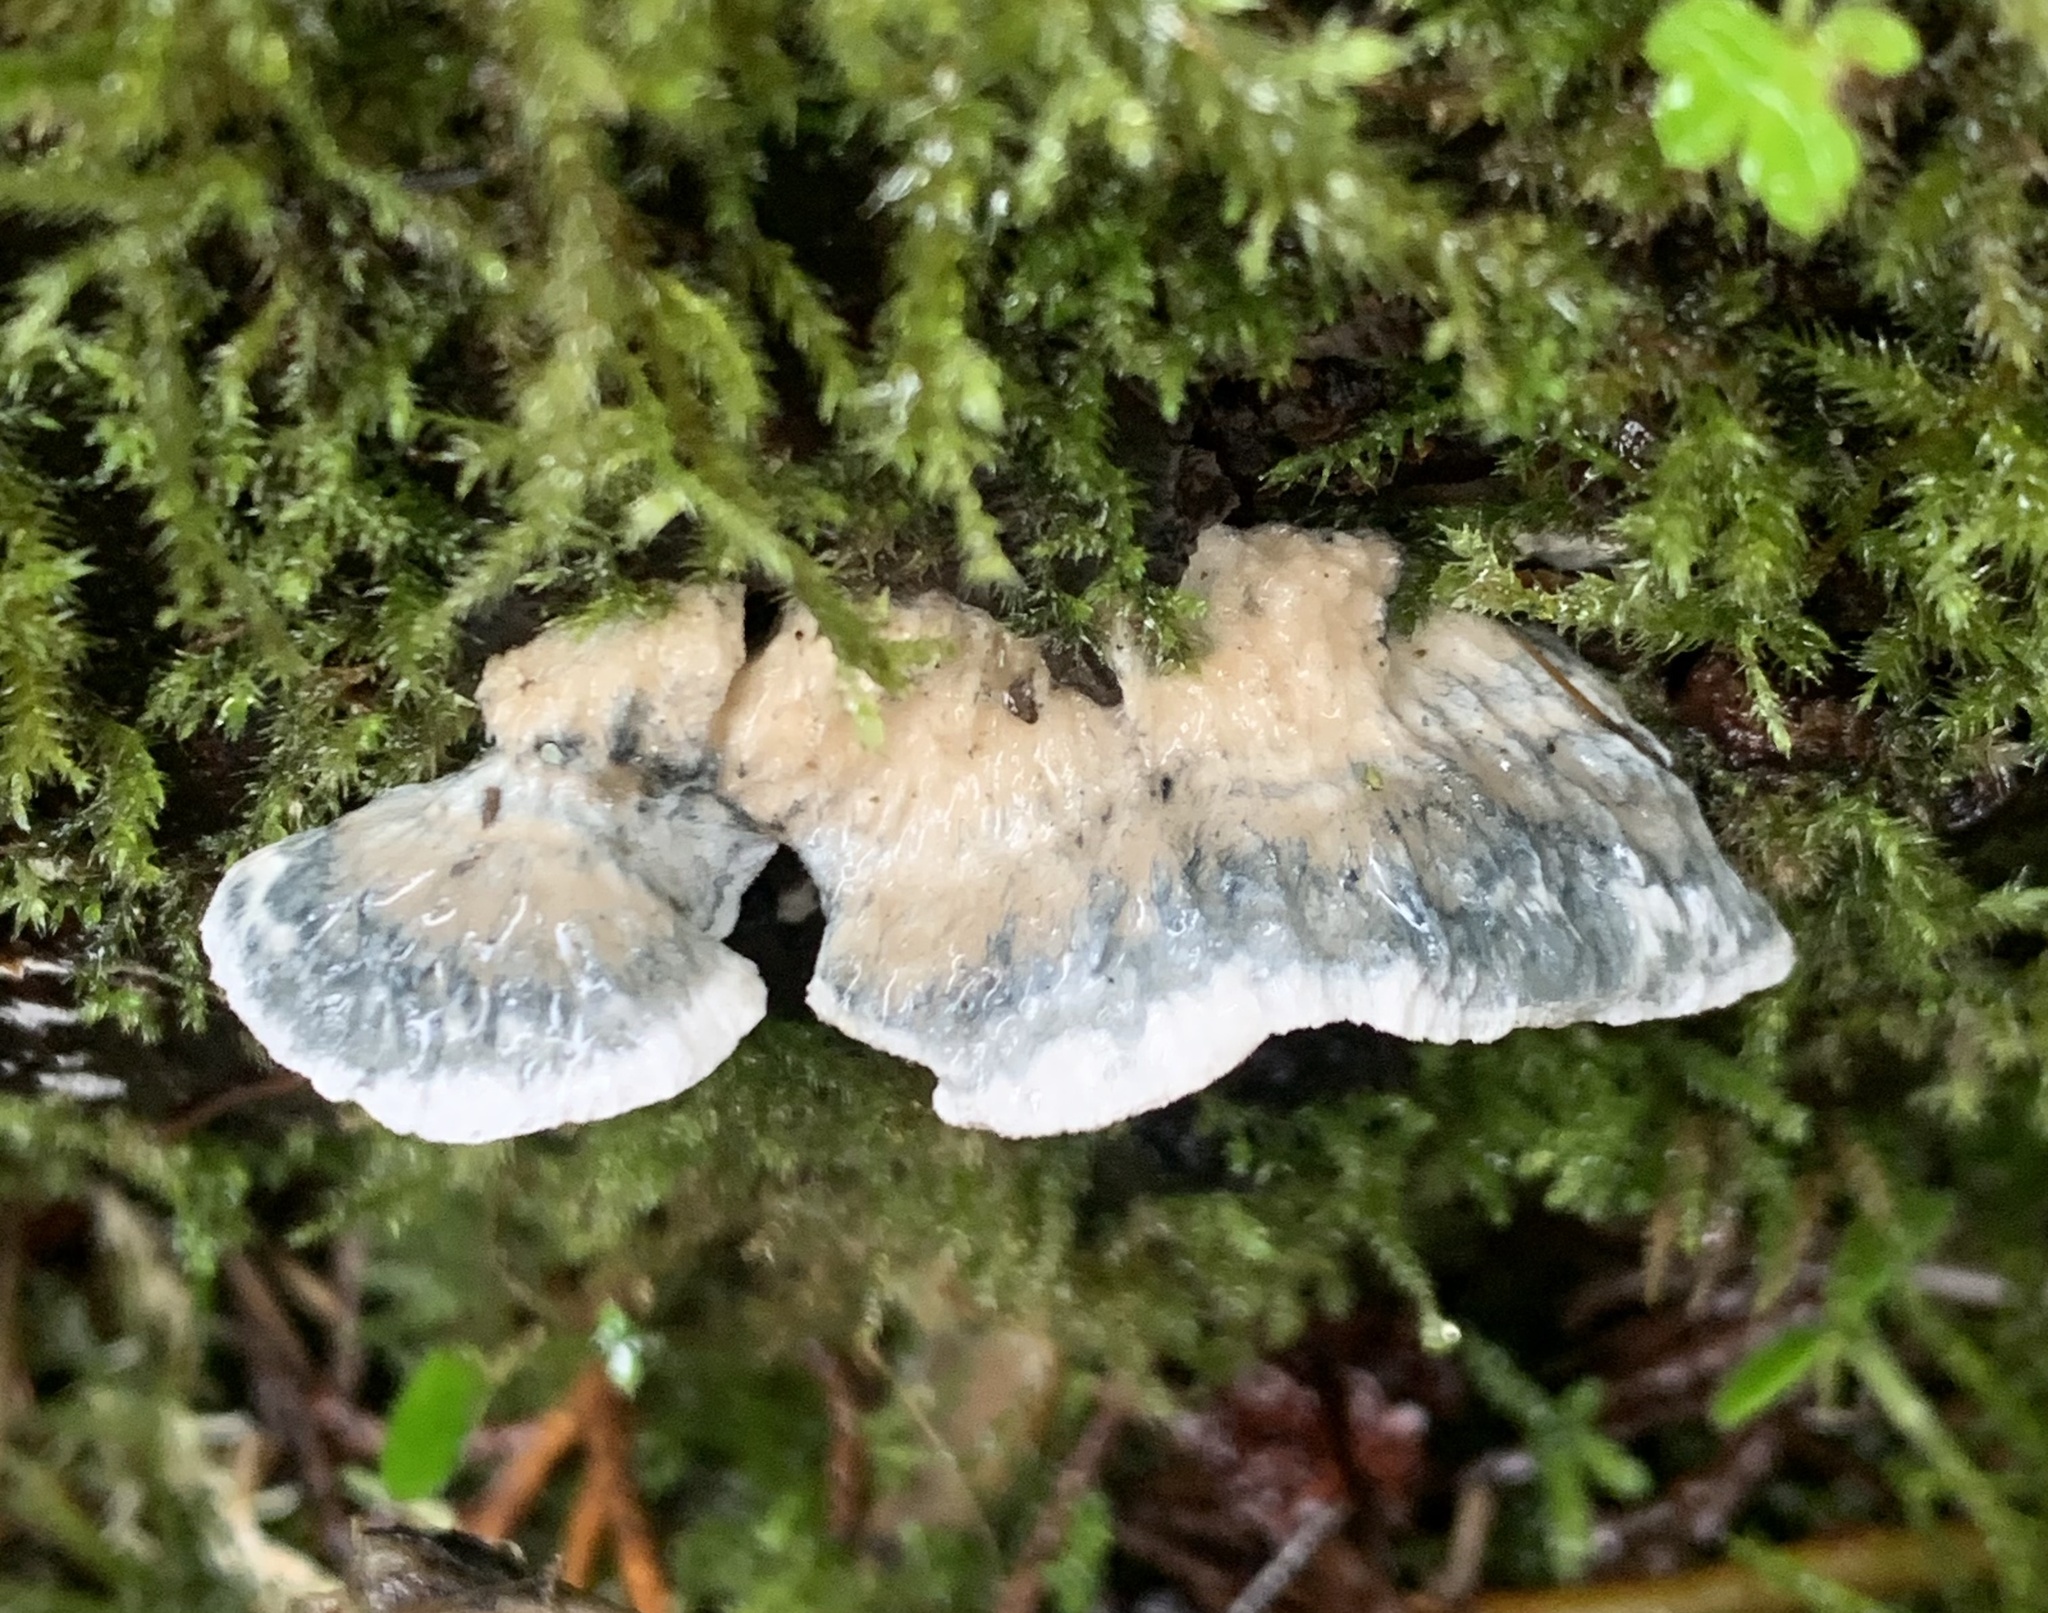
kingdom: Fungi
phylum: Basidiomycota
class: Agaricomycetes
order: Polyporales
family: Polyporaceae
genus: Cyanosporus
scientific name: Cyanosporus caesius
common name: Blue cheese polypore
